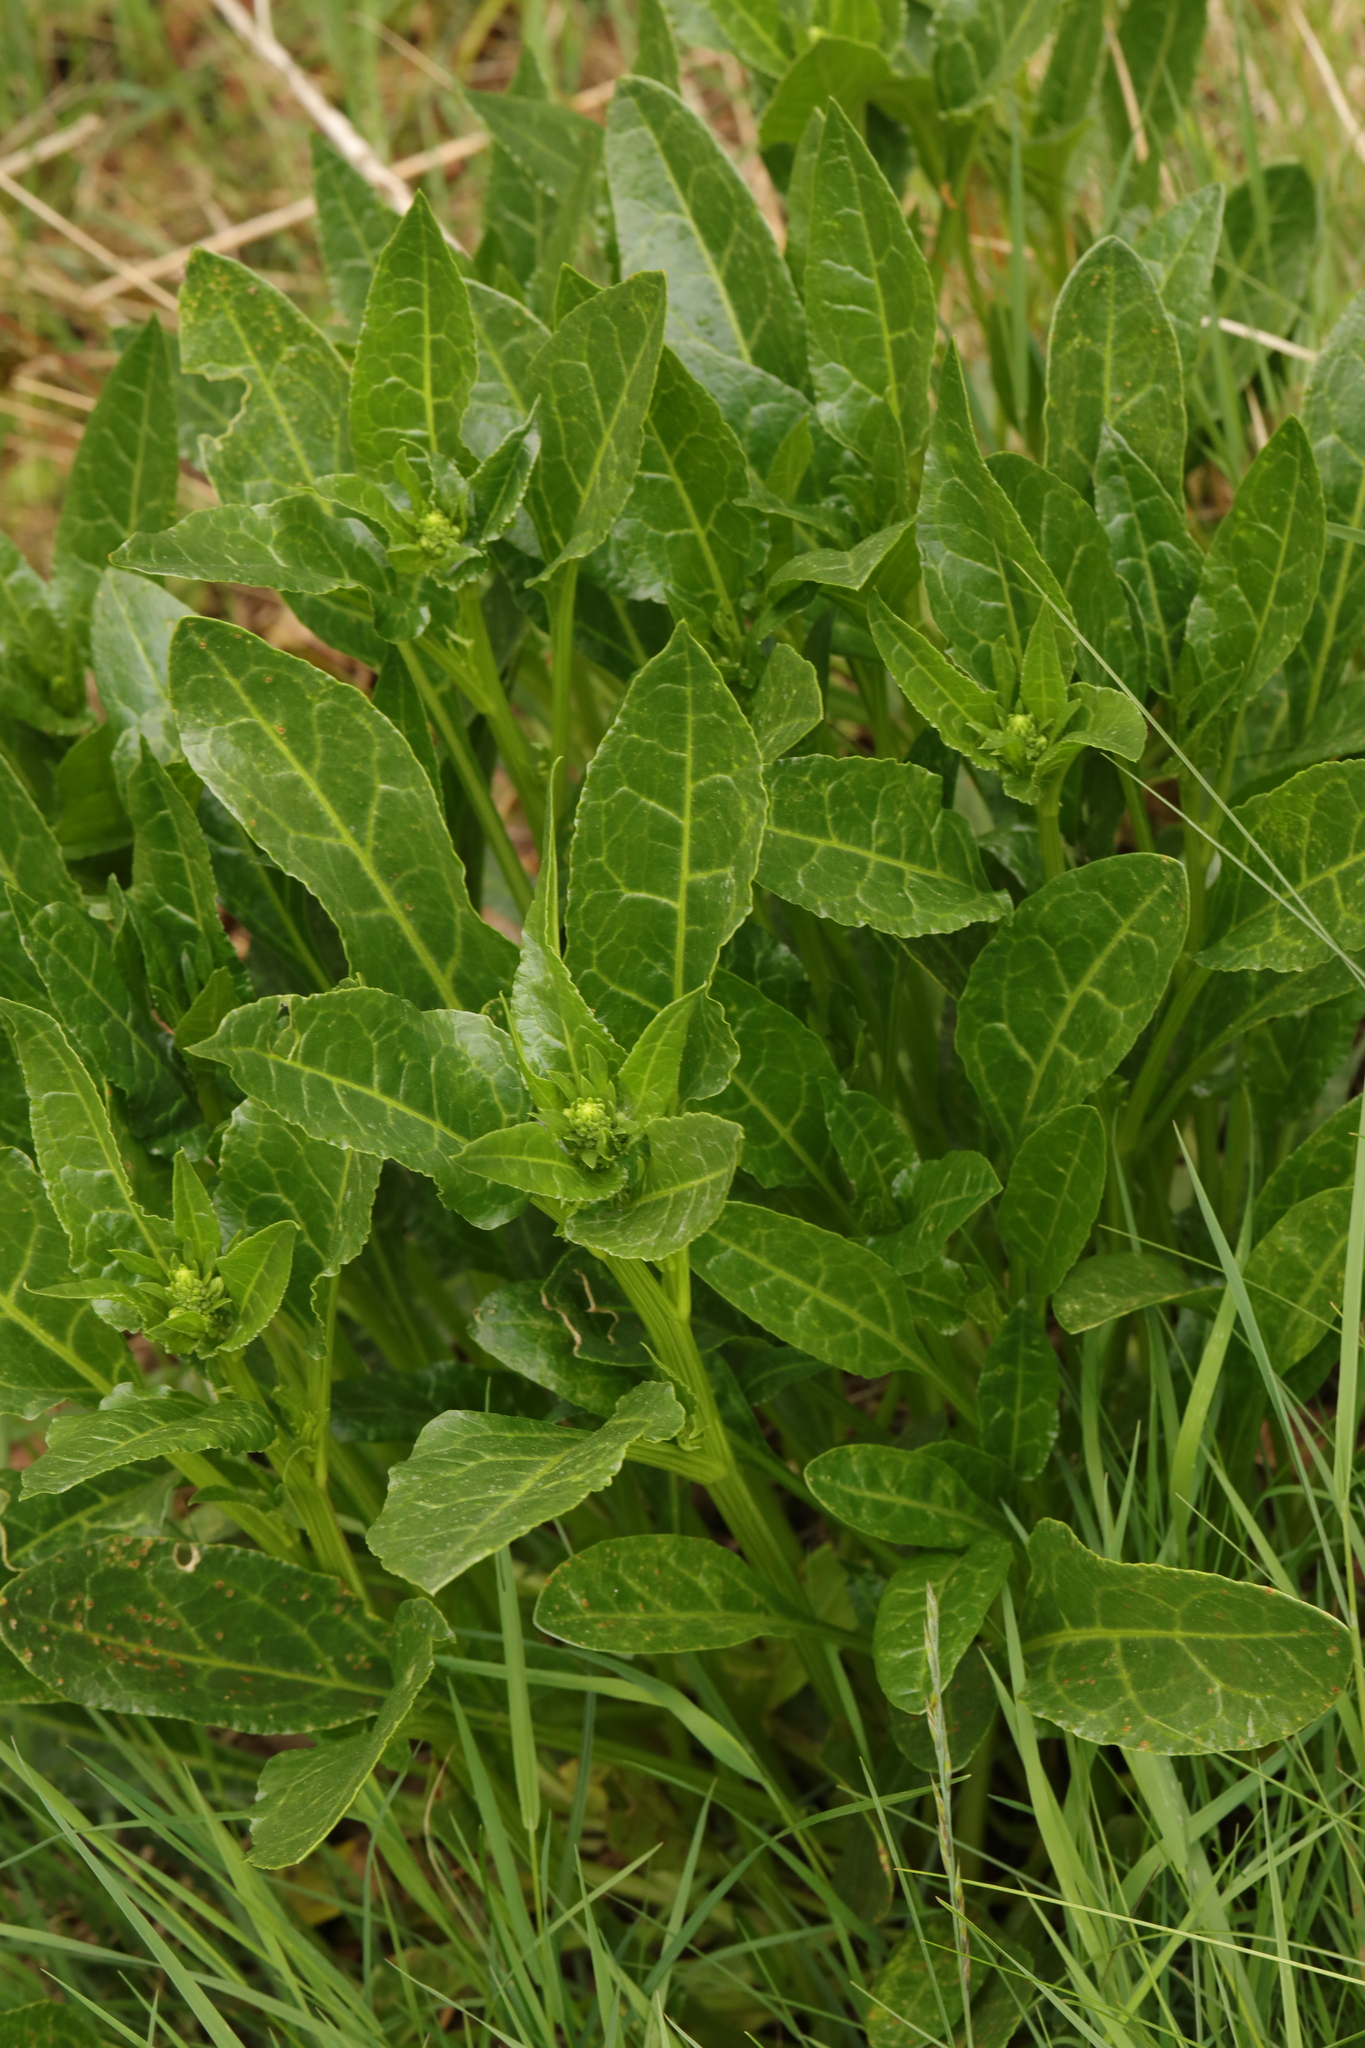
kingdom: Plantae
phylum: Tracheophyta
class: Magnoliopsida
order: Caryophyllales
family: Amaranthaceae
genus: Beta
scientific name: Beta vulgaris
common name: Beet
